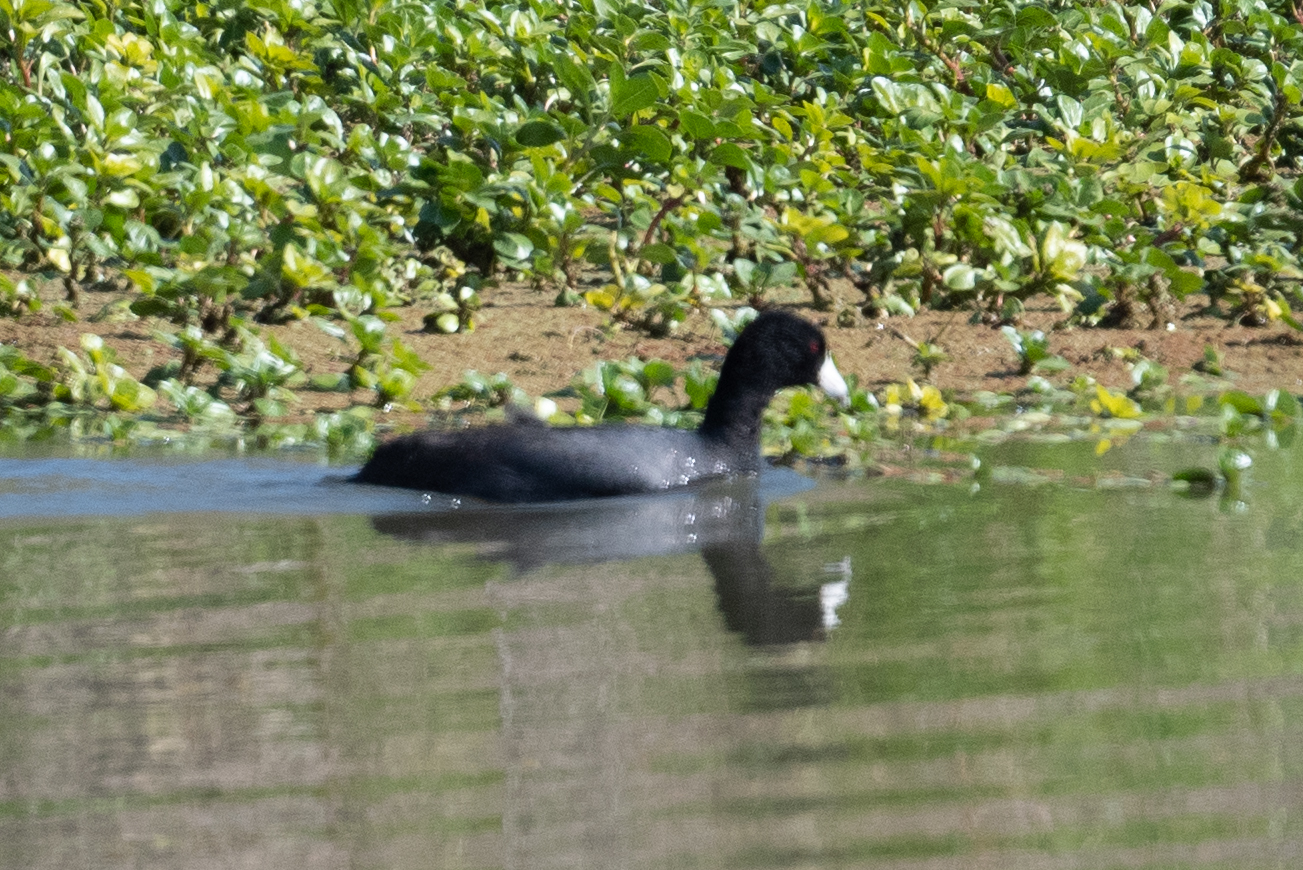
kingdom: Animalia
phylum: Chordata
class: Aves
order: Gruiformes
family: Rallidae
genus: Fulica
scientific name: Fulica americana
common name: American coot
